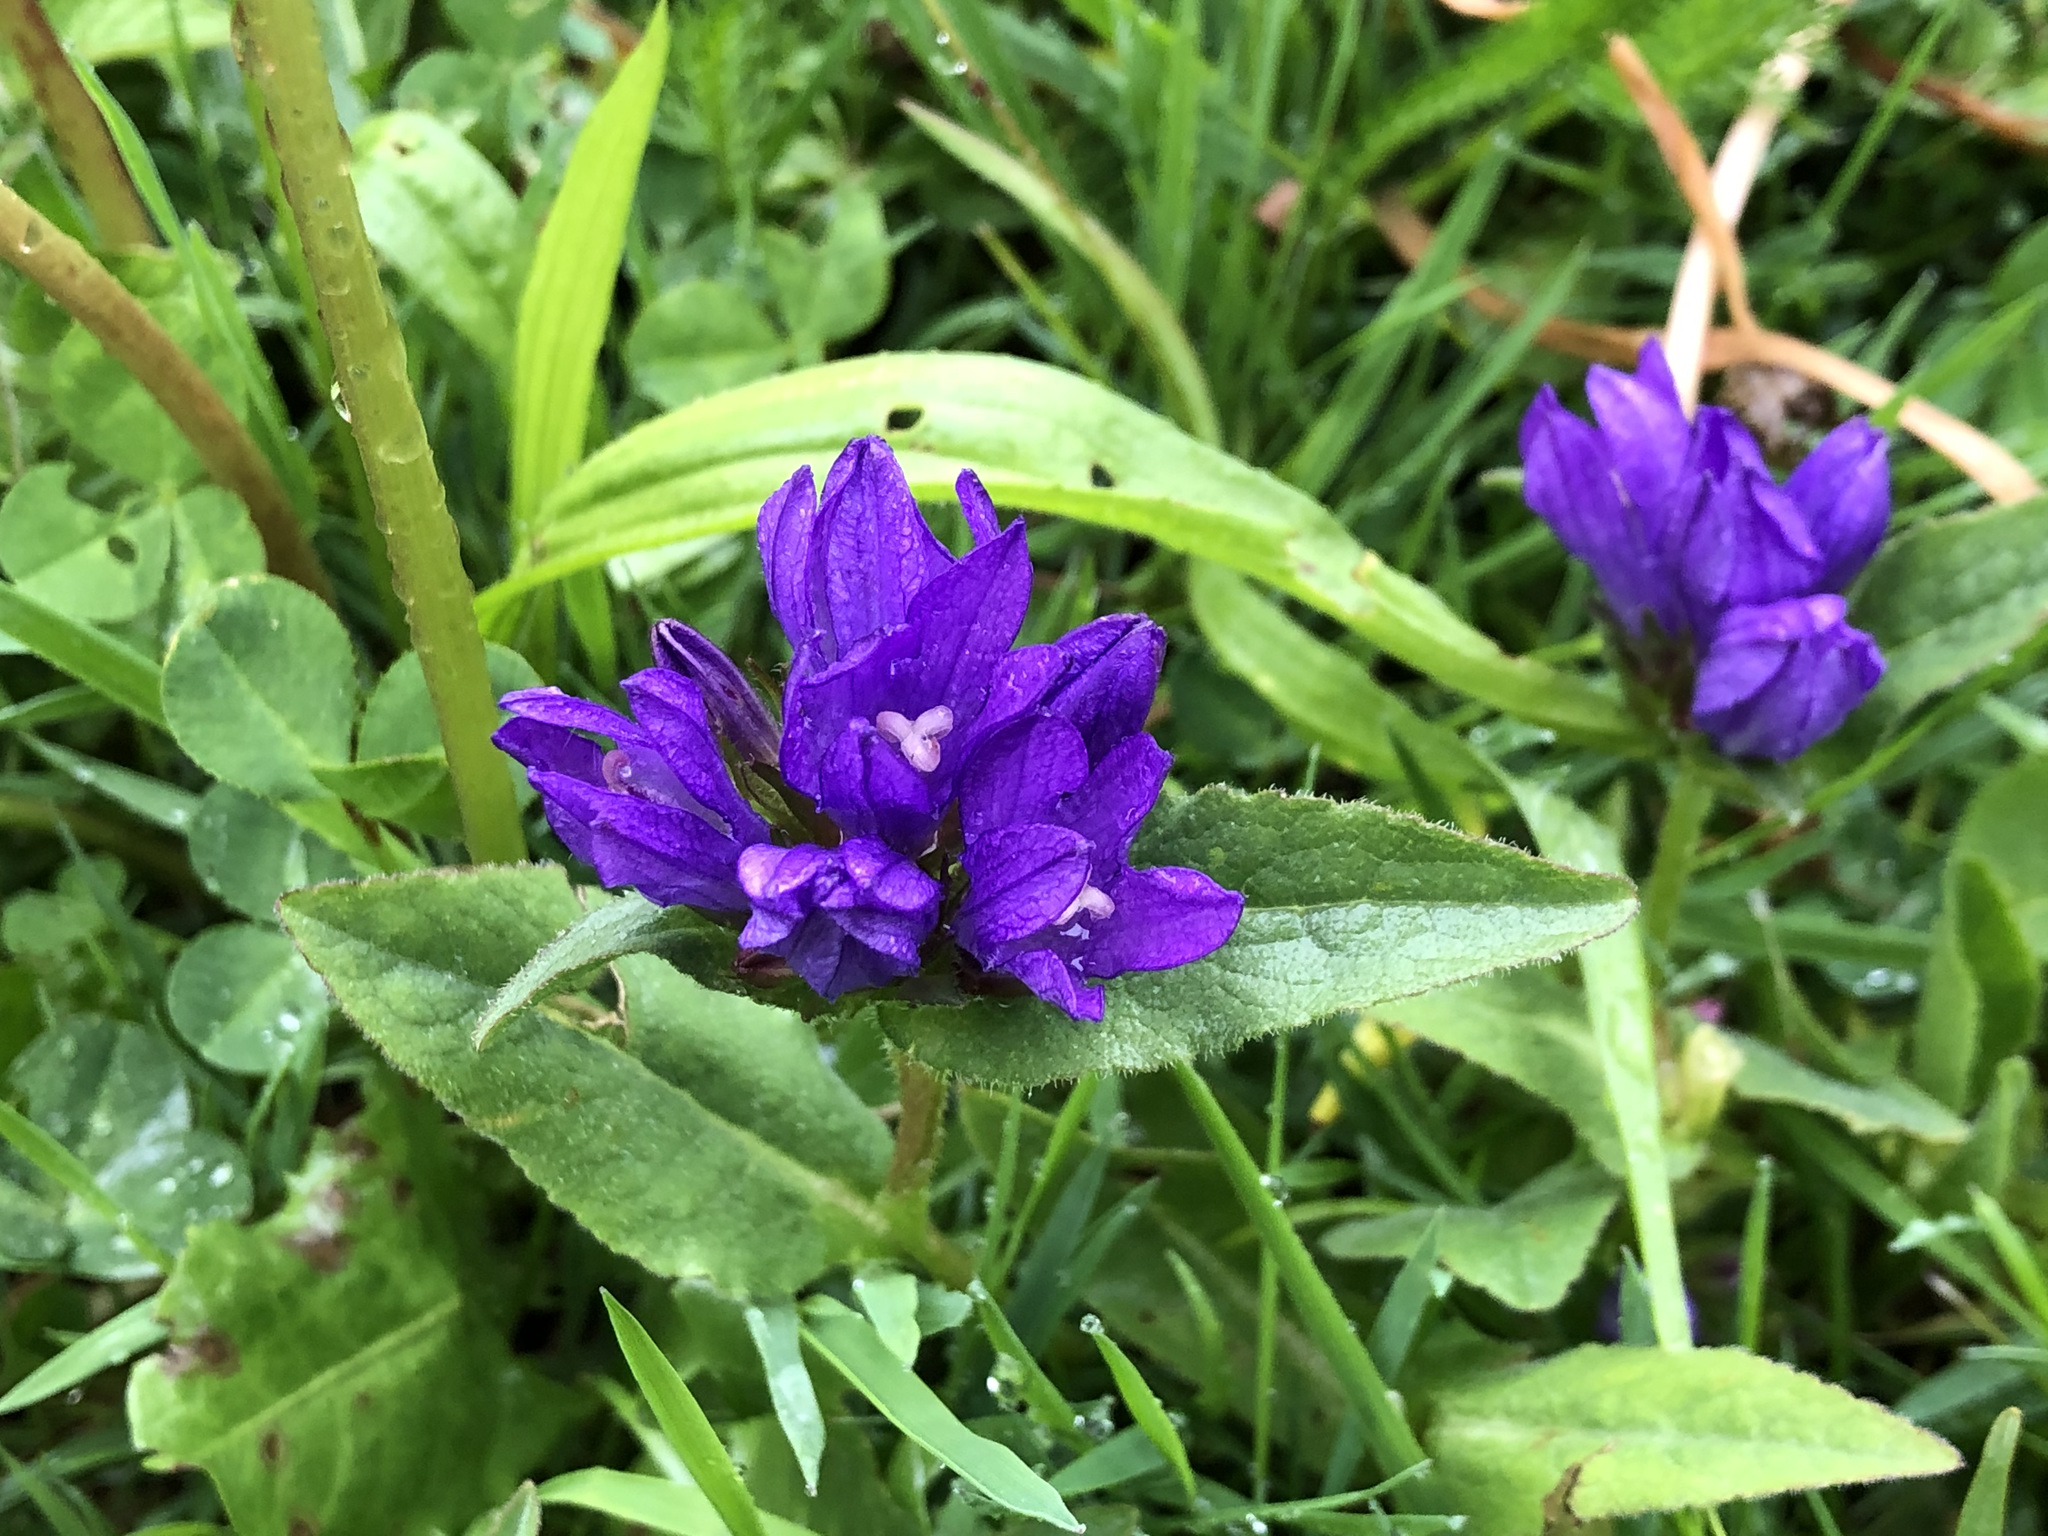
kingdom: Plantae
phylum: Tracheophyta
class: Magnoliopsida
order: Asterales
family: Campanulaceae
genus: Campanula
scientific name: Campanula glomerata
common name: Clustered bellflower
